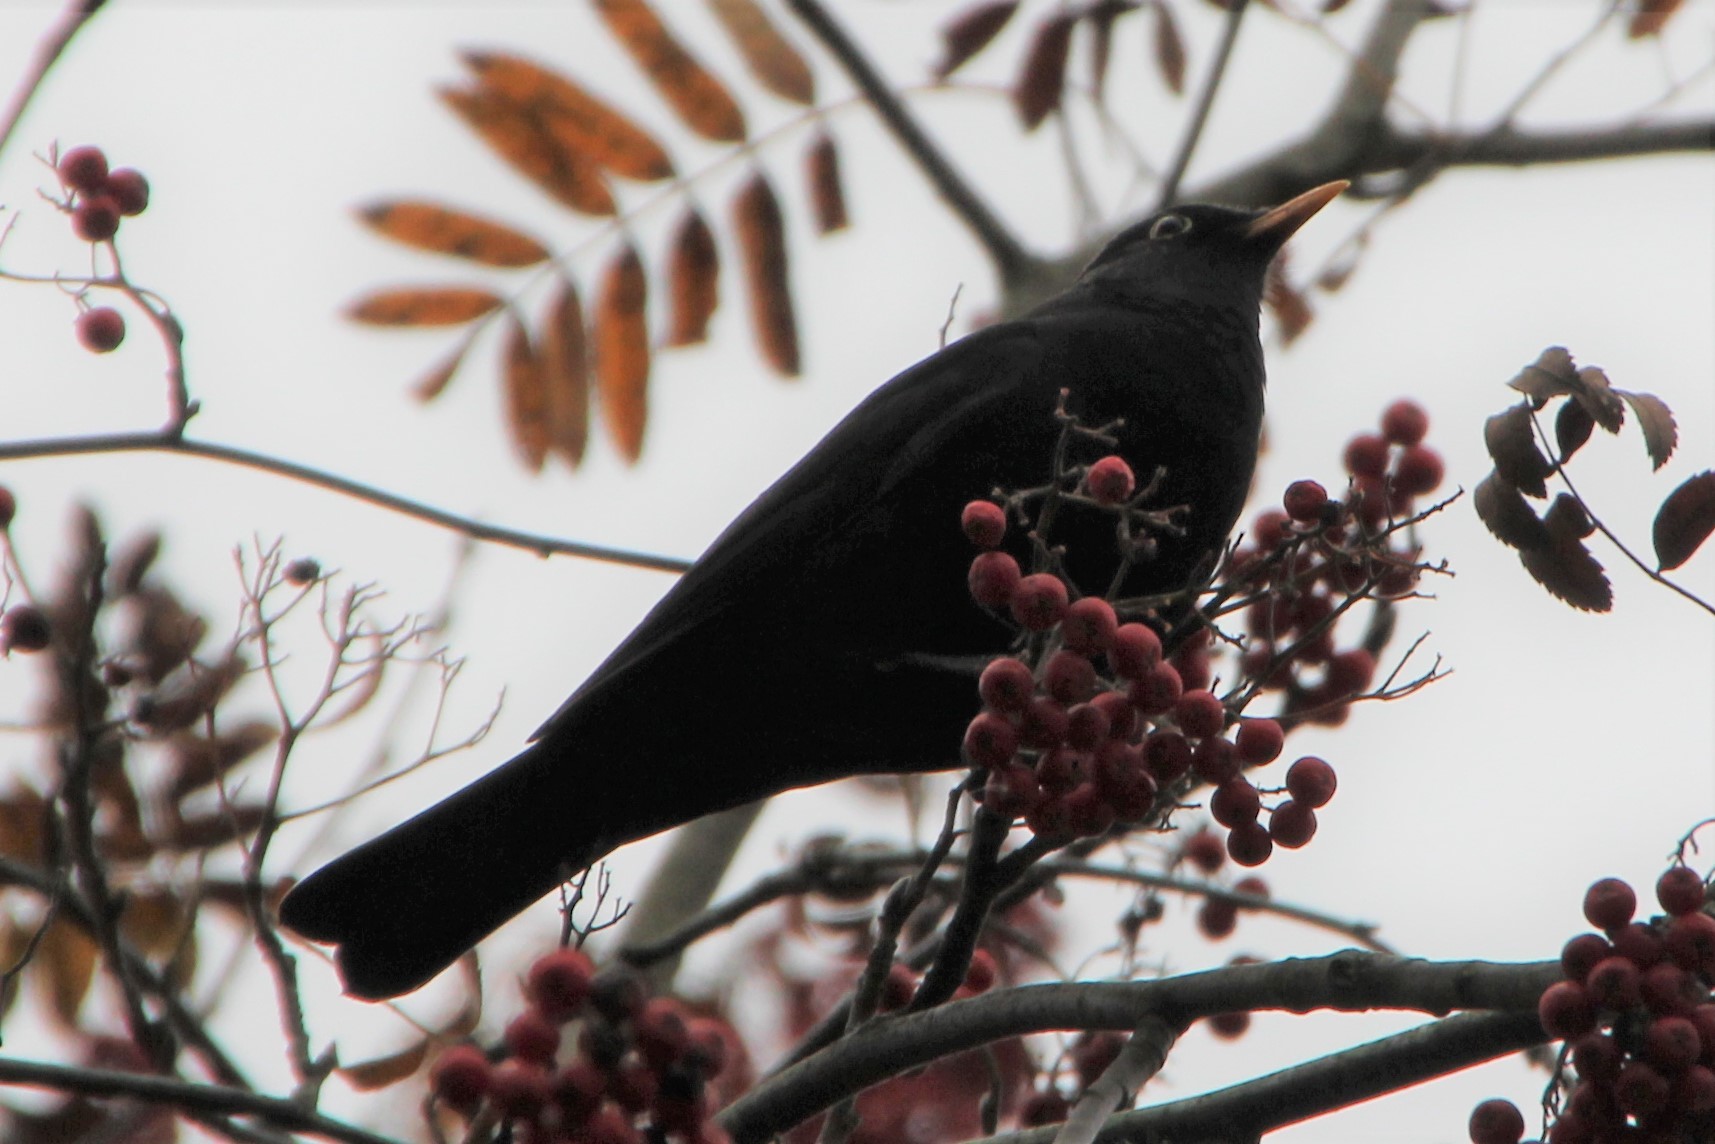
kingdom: Animalia
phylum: Chordata
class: Aves
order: Passeriformes
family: Turdidae
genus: Turdus
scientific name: Turdus merula
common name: Common blackbird
